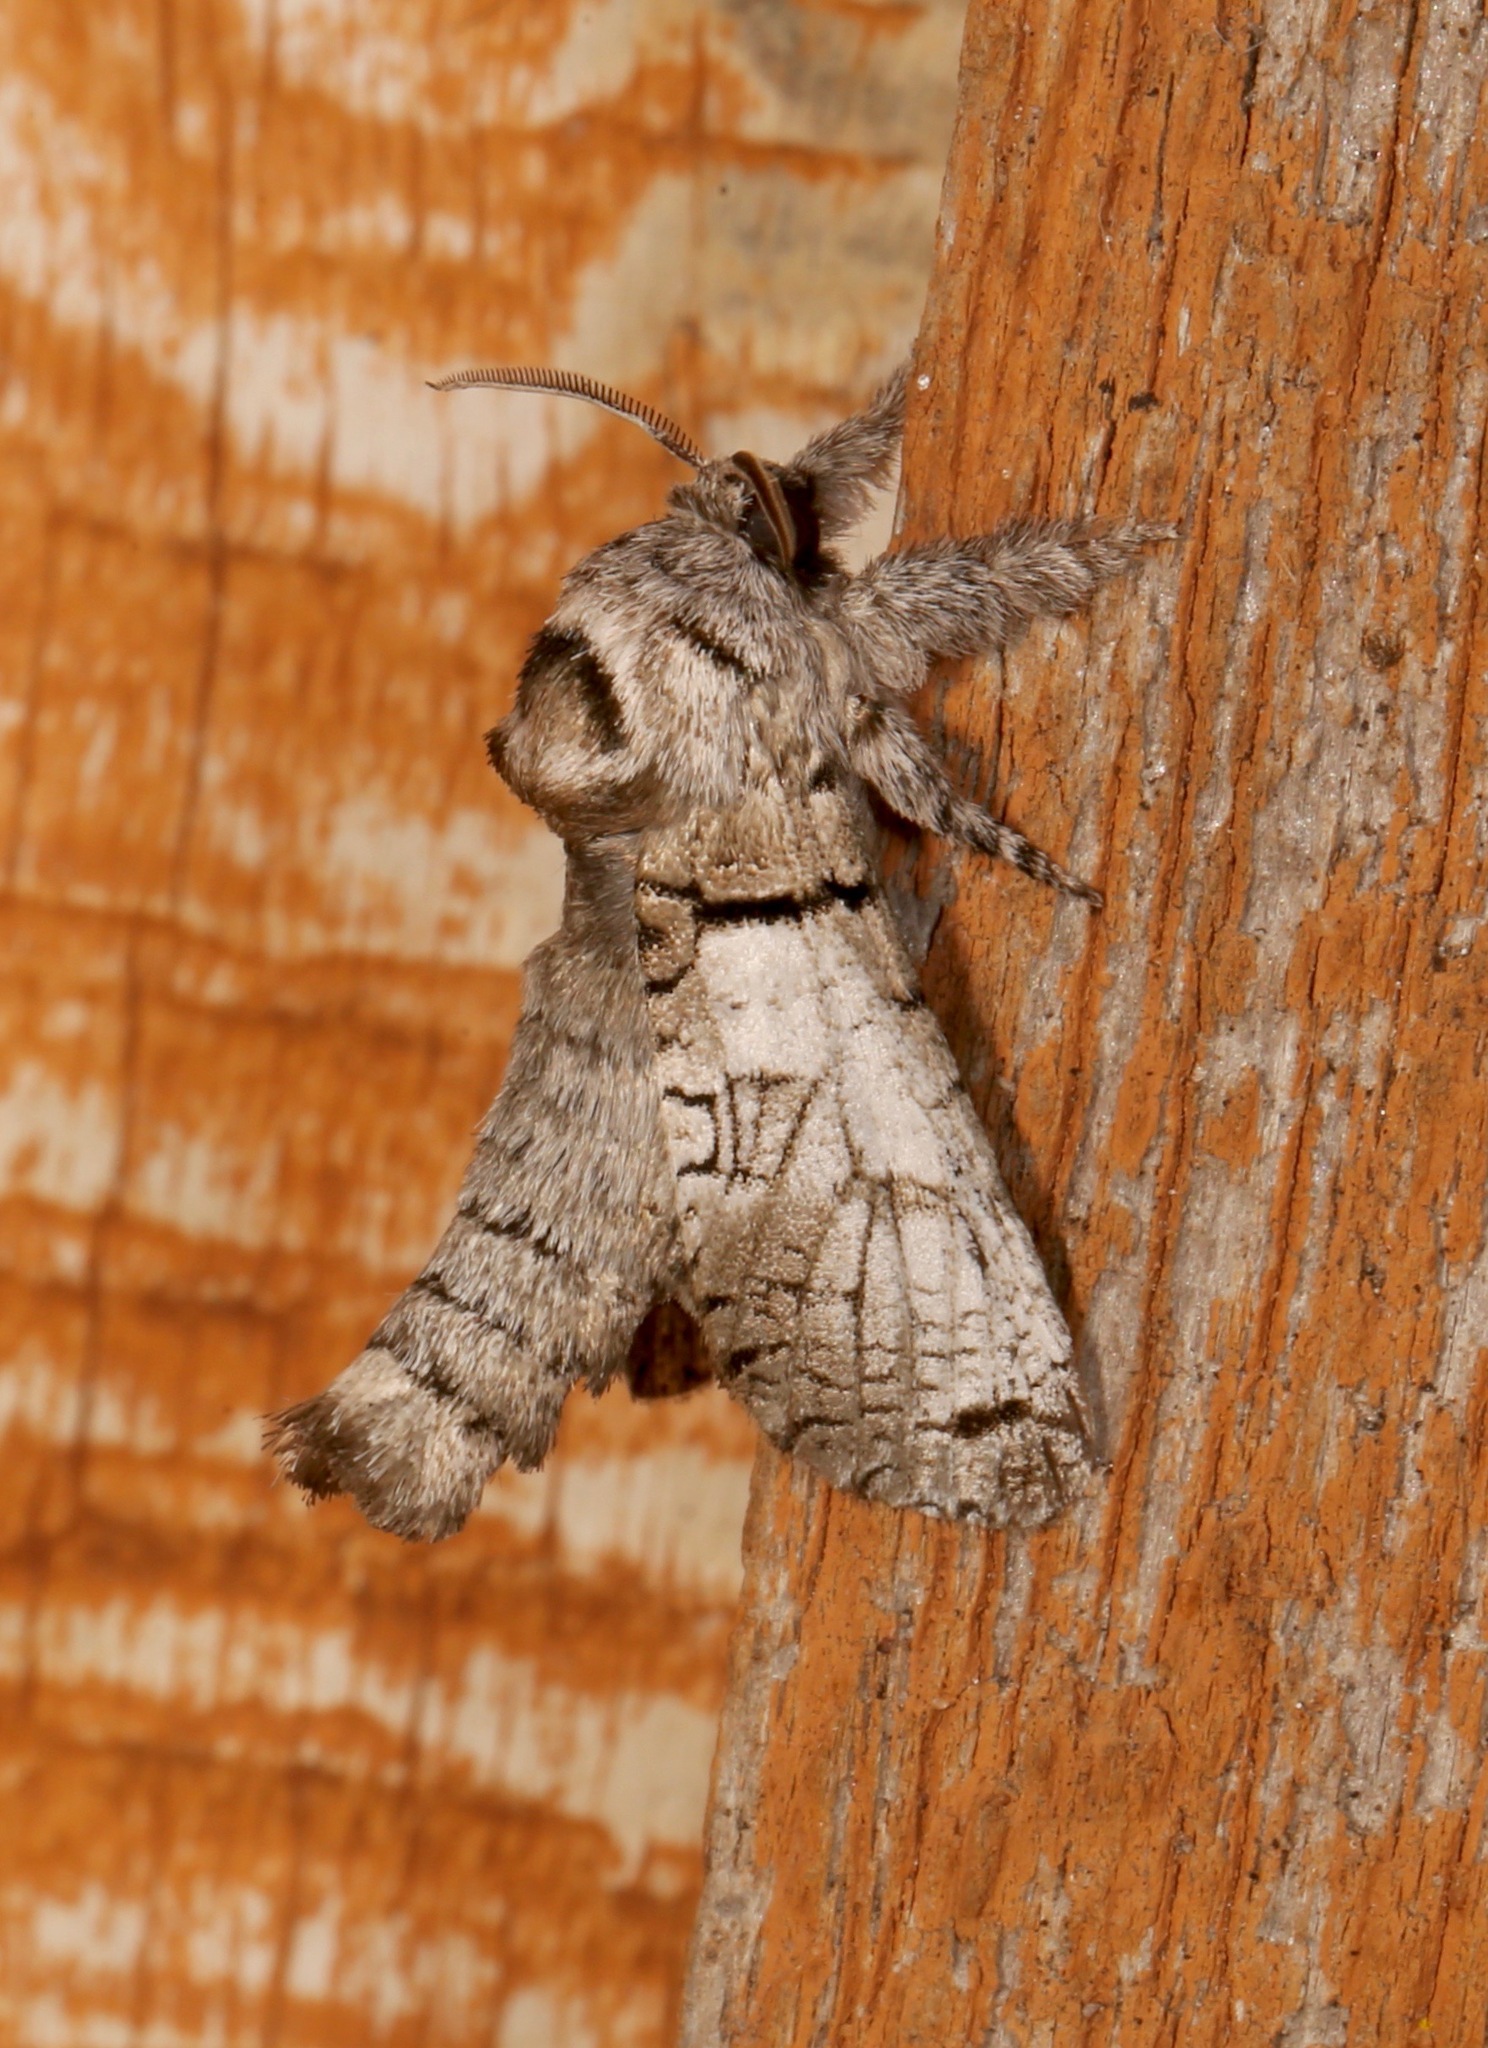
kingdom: Animalia
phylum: Arthropoda
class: Insecta
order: Lepidoptera
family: Cossidae
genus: Inguromorpha
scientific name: Inguromorpha basalis
